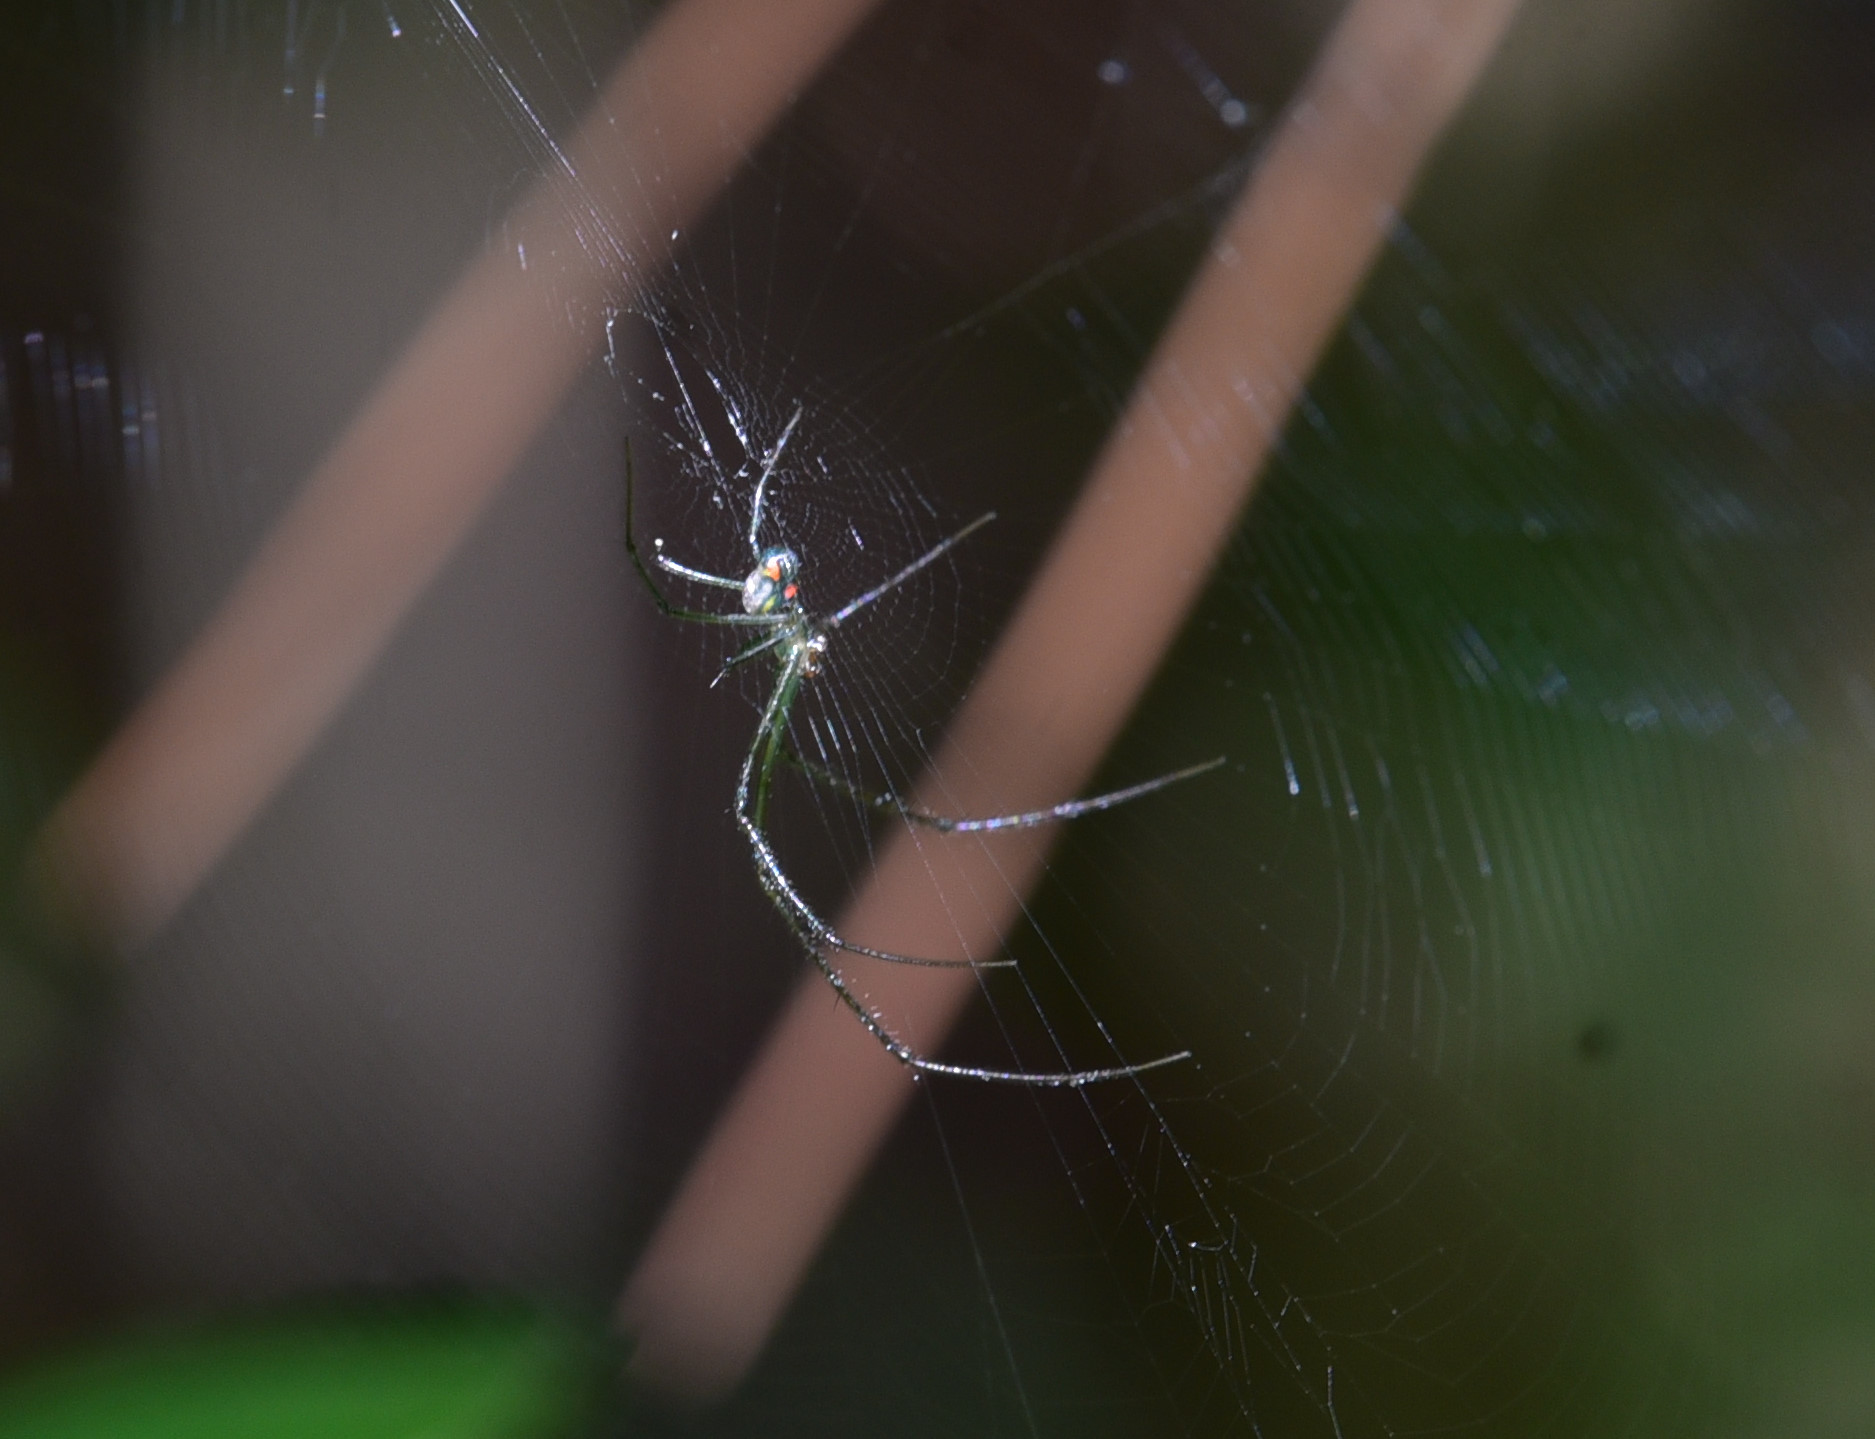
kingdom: Animalia
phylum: Arthropoda
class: Arachnida
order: Araneae
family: Tetragnathidae
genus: Leucauge
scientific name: Leucauge argyrobapta
